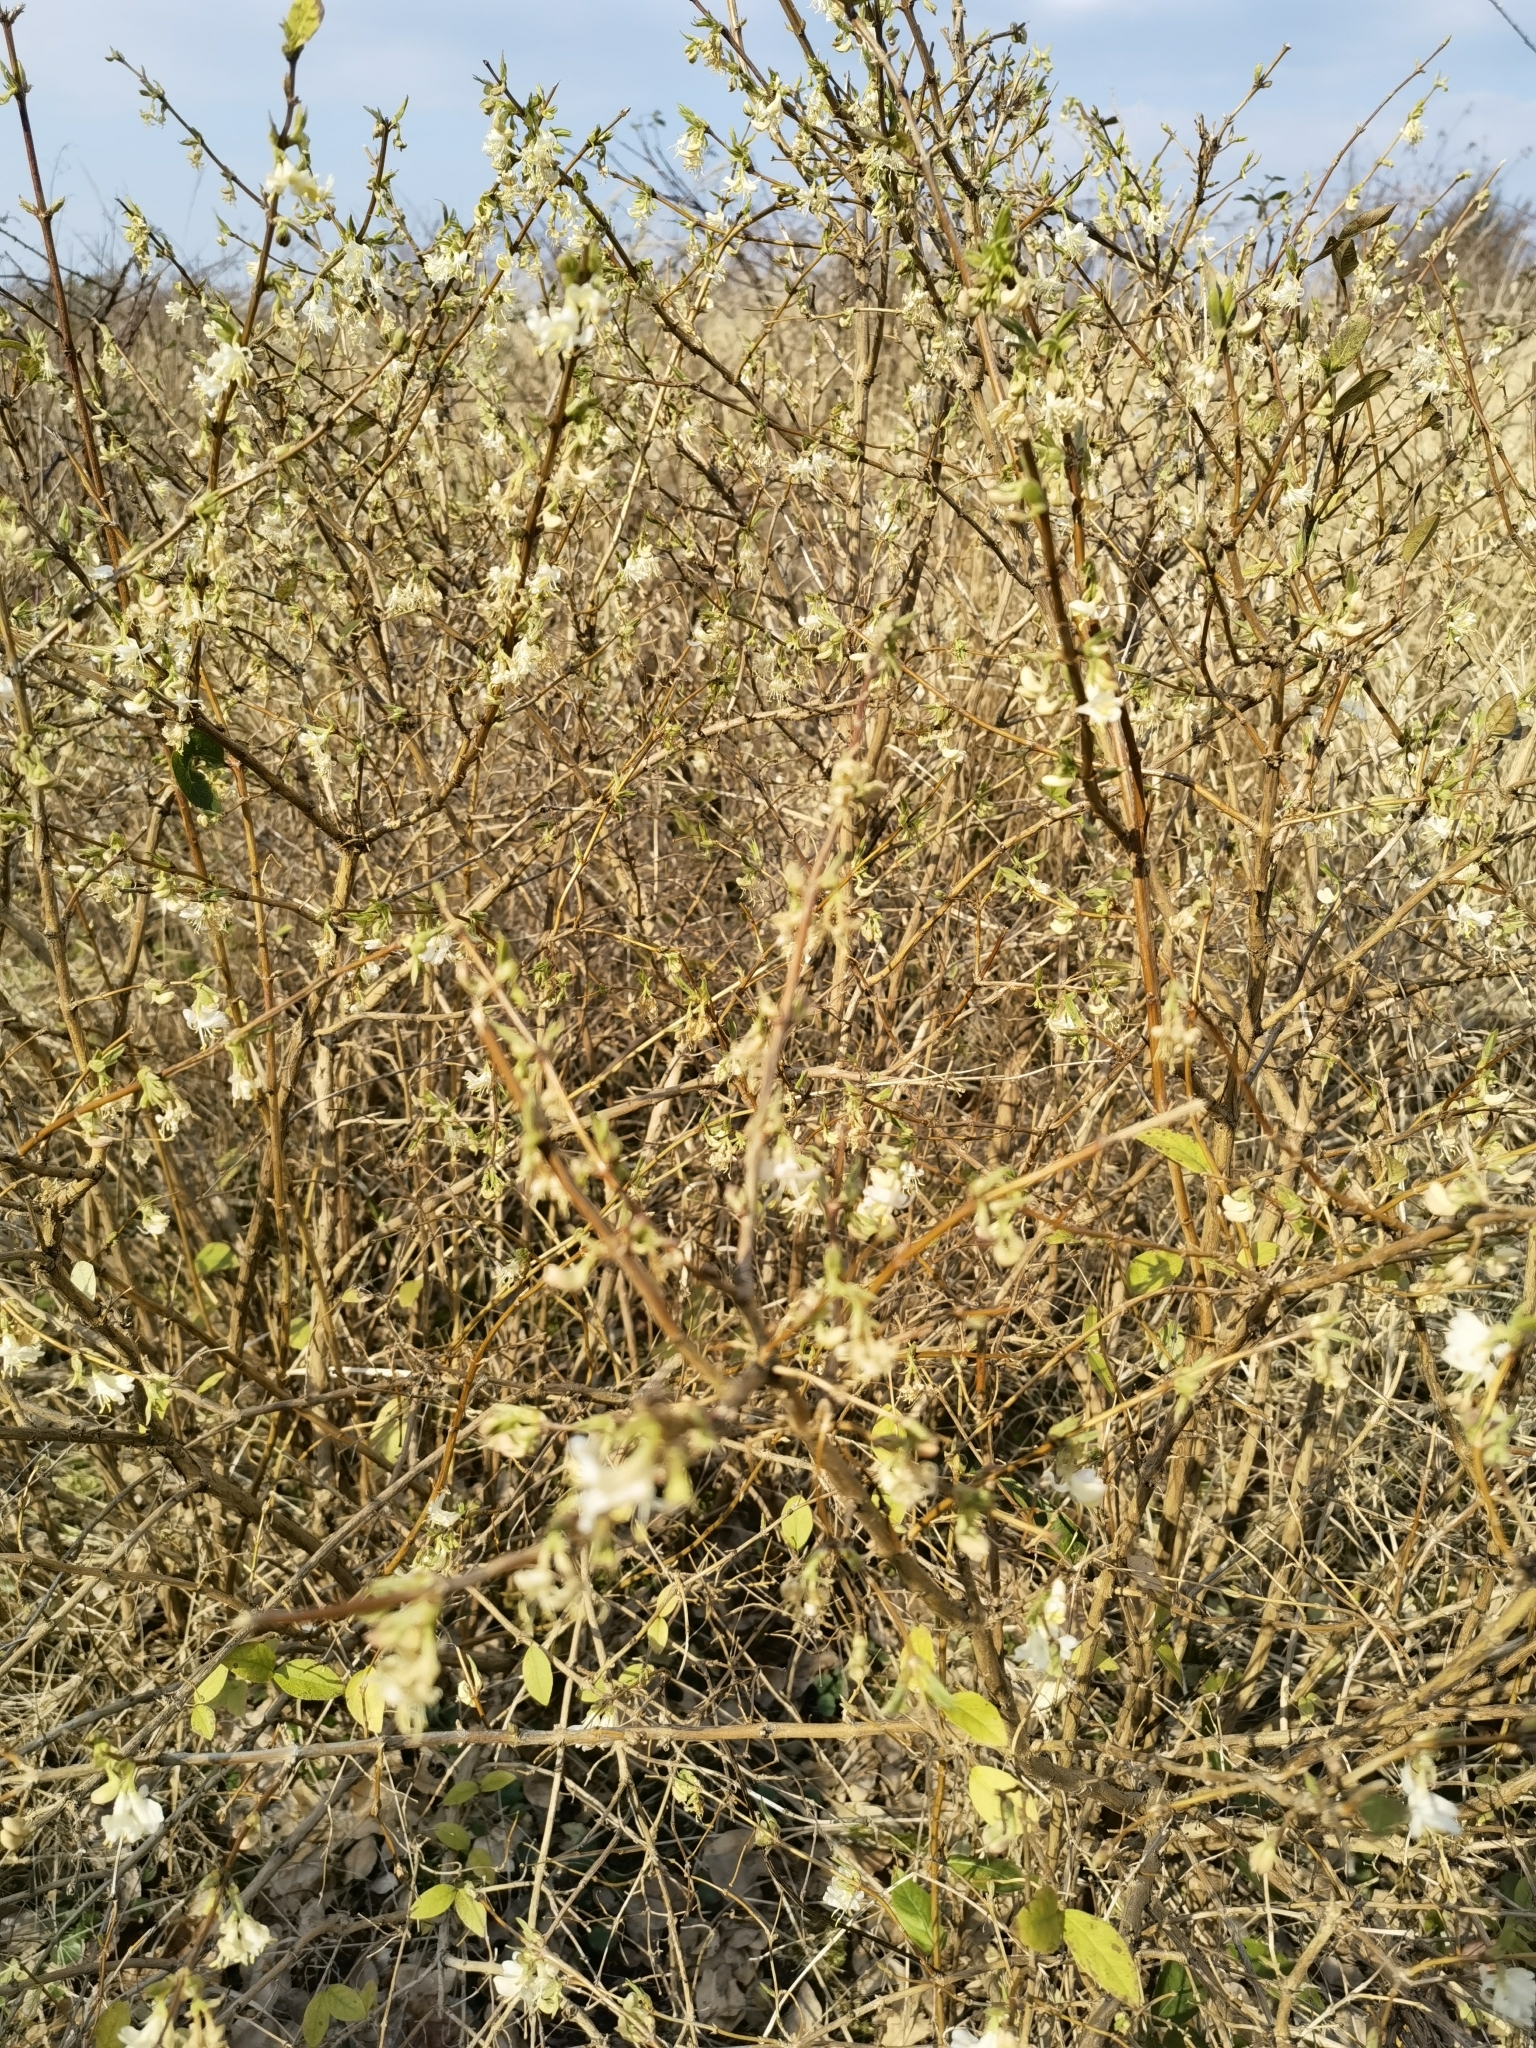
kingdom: Plantae
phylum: Tracheophyta
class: Magnoliopsida
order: Dipsacales
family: Caprifoliaceae
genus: Lonicera
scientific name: Lonicera fragrantissima
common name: Fragrant honeysuckle
